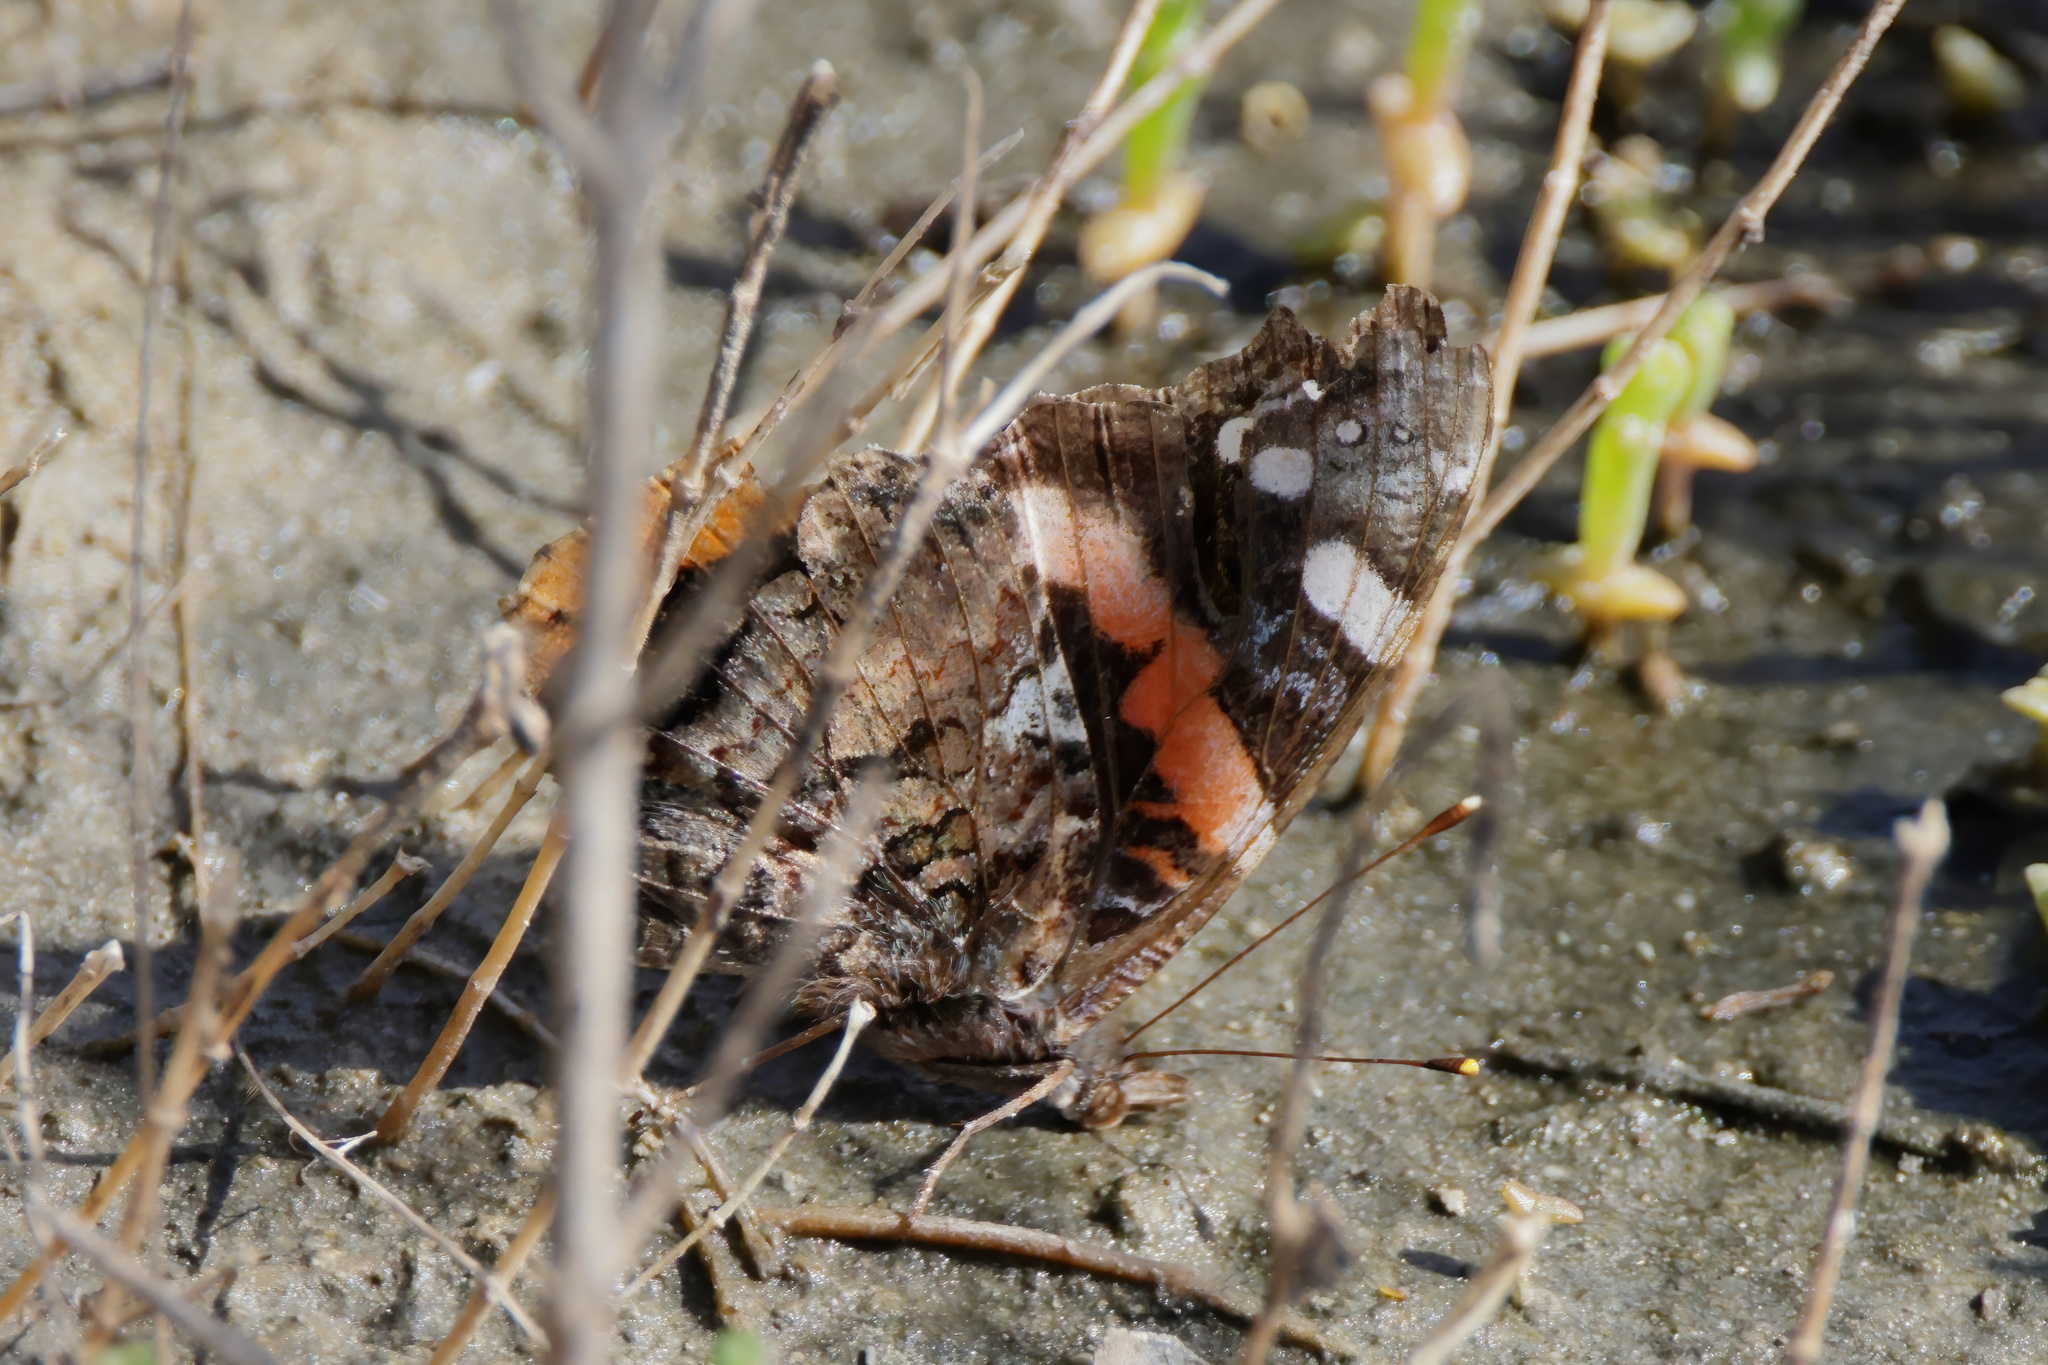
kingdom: Animalia
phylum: Arthropoda
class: Insecta
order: Lepidoptera
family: Nymphalidae
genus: Vanessa
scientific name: Vanessa atalanta
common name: Red admiral
